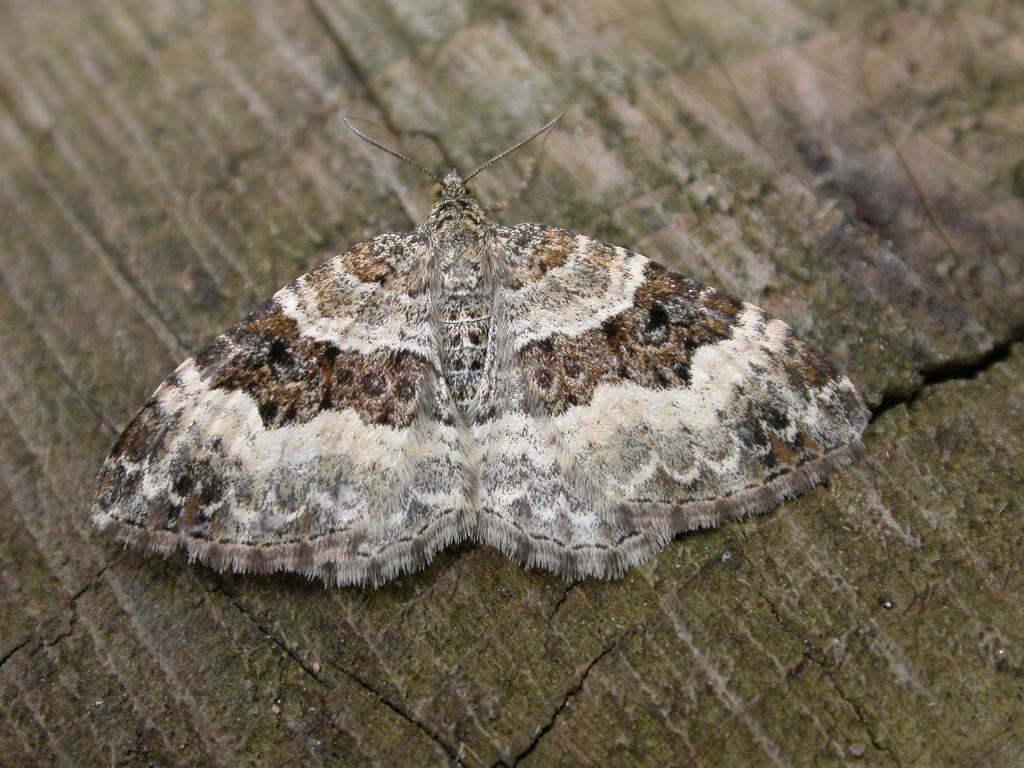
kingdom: Animalia
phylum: Arthropoda
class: Insecta
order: Lepidoptera
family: Geometridae
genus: Epirrhoe
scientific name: Epirrhoe alternata
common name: Common carpet
